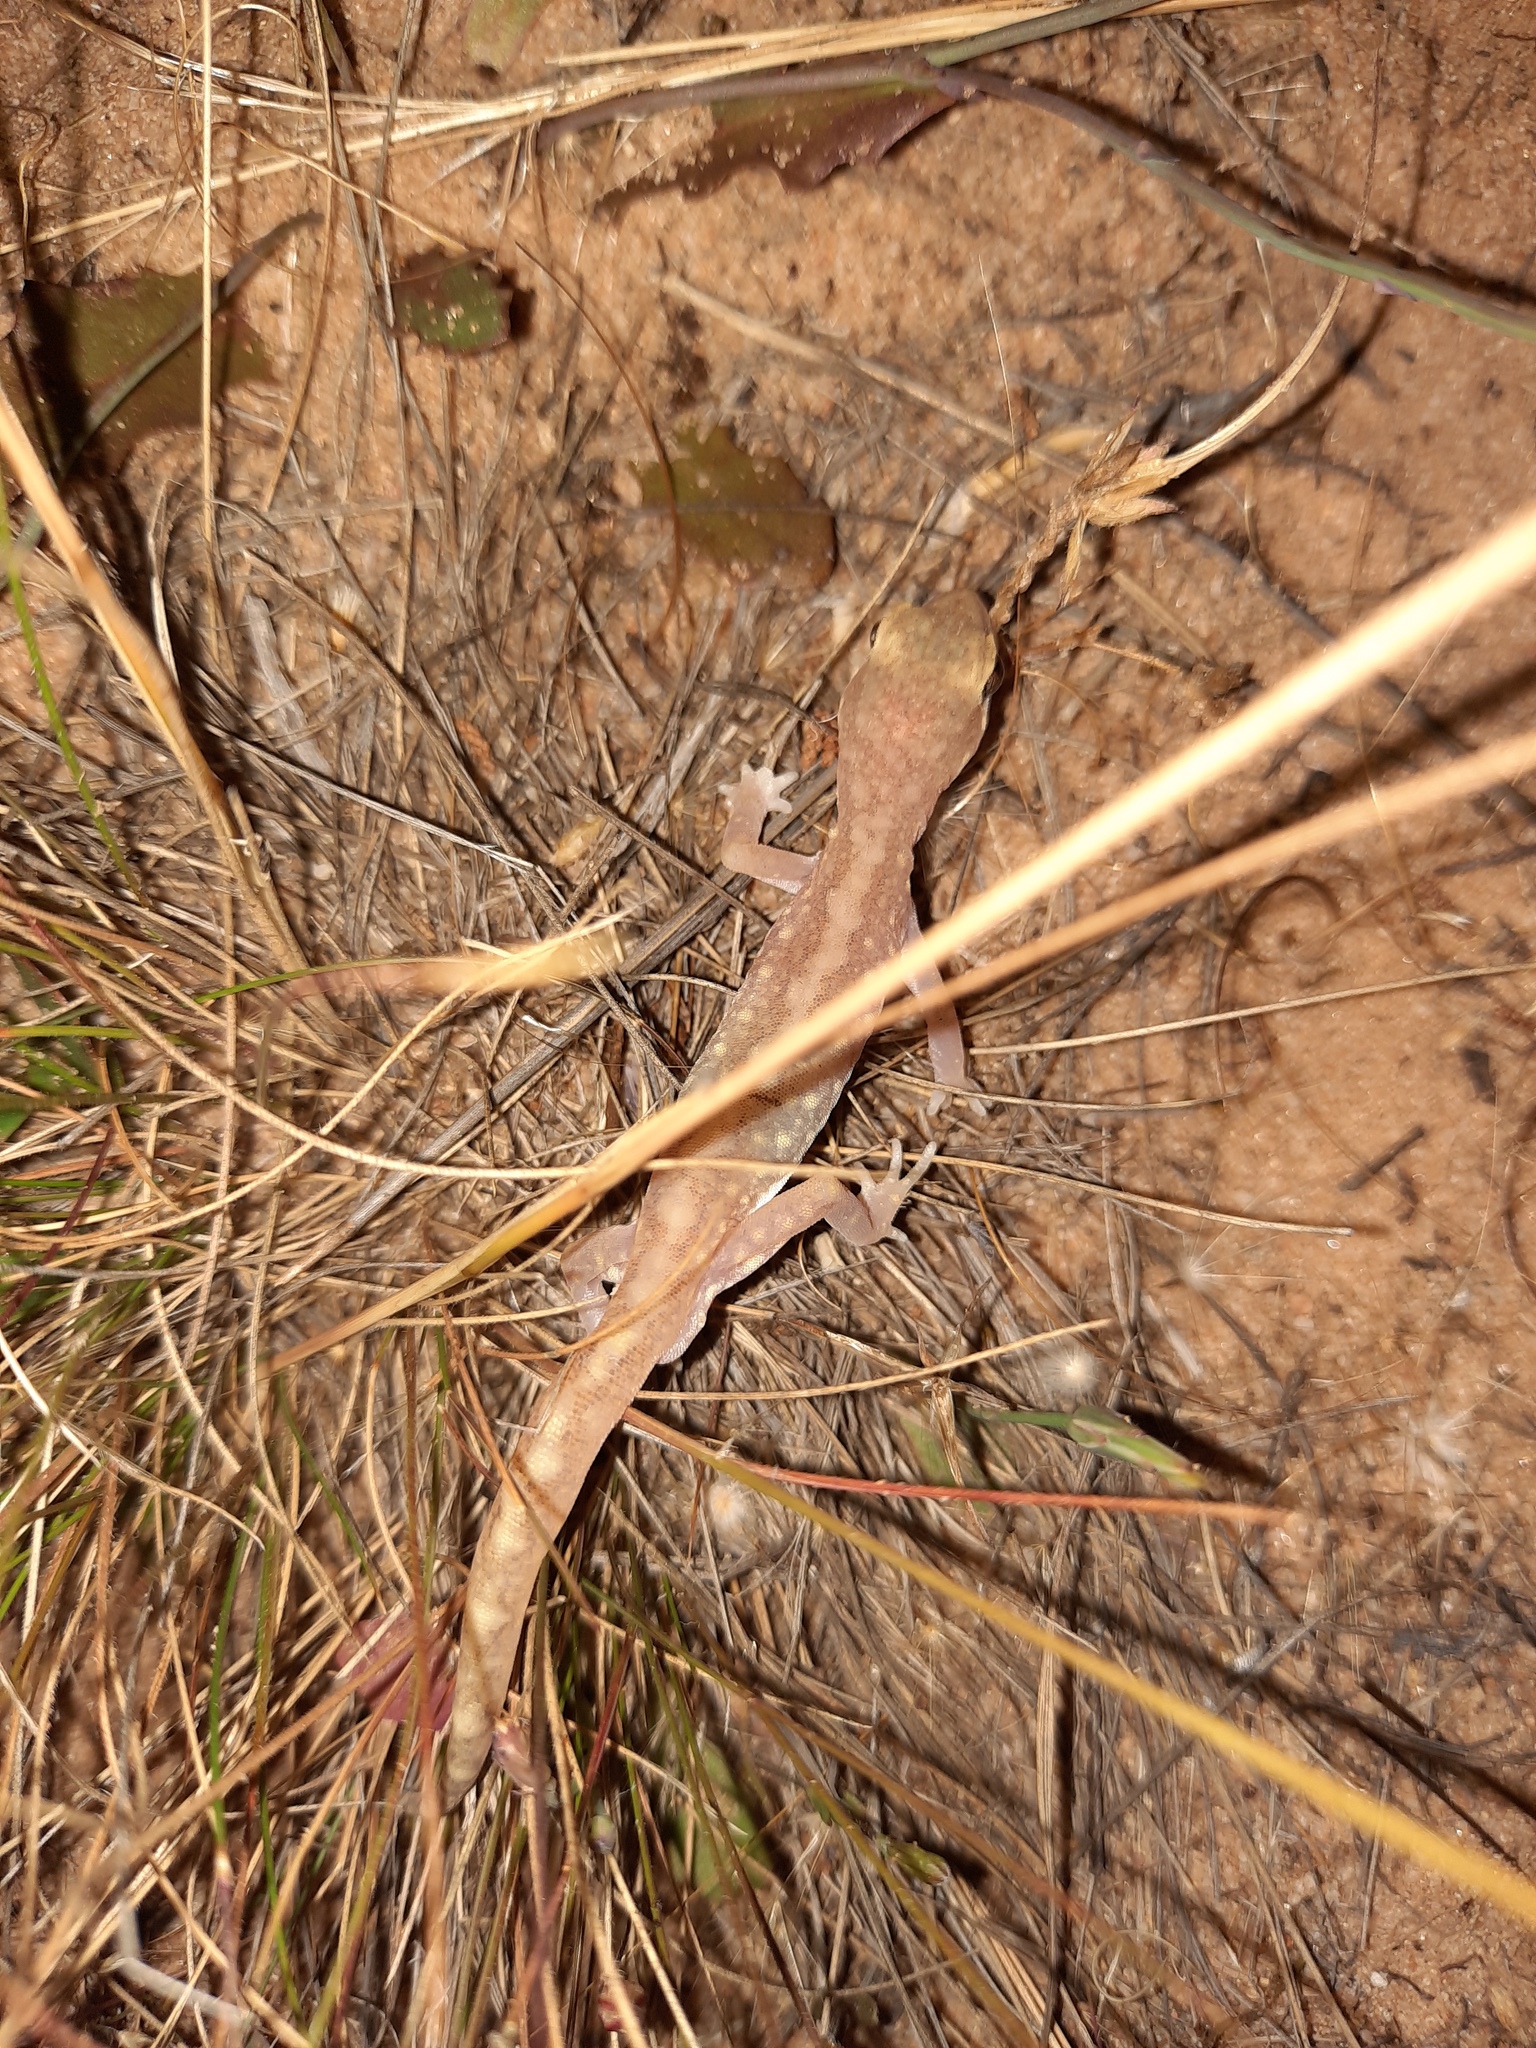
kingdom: Animalia
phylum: Chordata
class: Squamata
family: Diplodactylidae
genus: Lucasium
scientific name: Lucasium damaeum
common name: Beaded gecko
